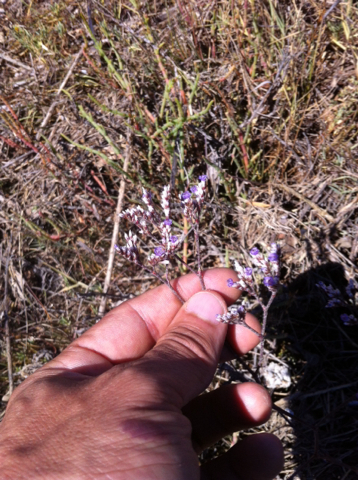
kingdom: Plantae
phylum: Tracheophyta
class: Magnoliopsida
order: Caryophyllales
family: Plumbaginaceae
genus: Limonium
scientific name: Limonium californicum
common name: Marsh-rosemary
